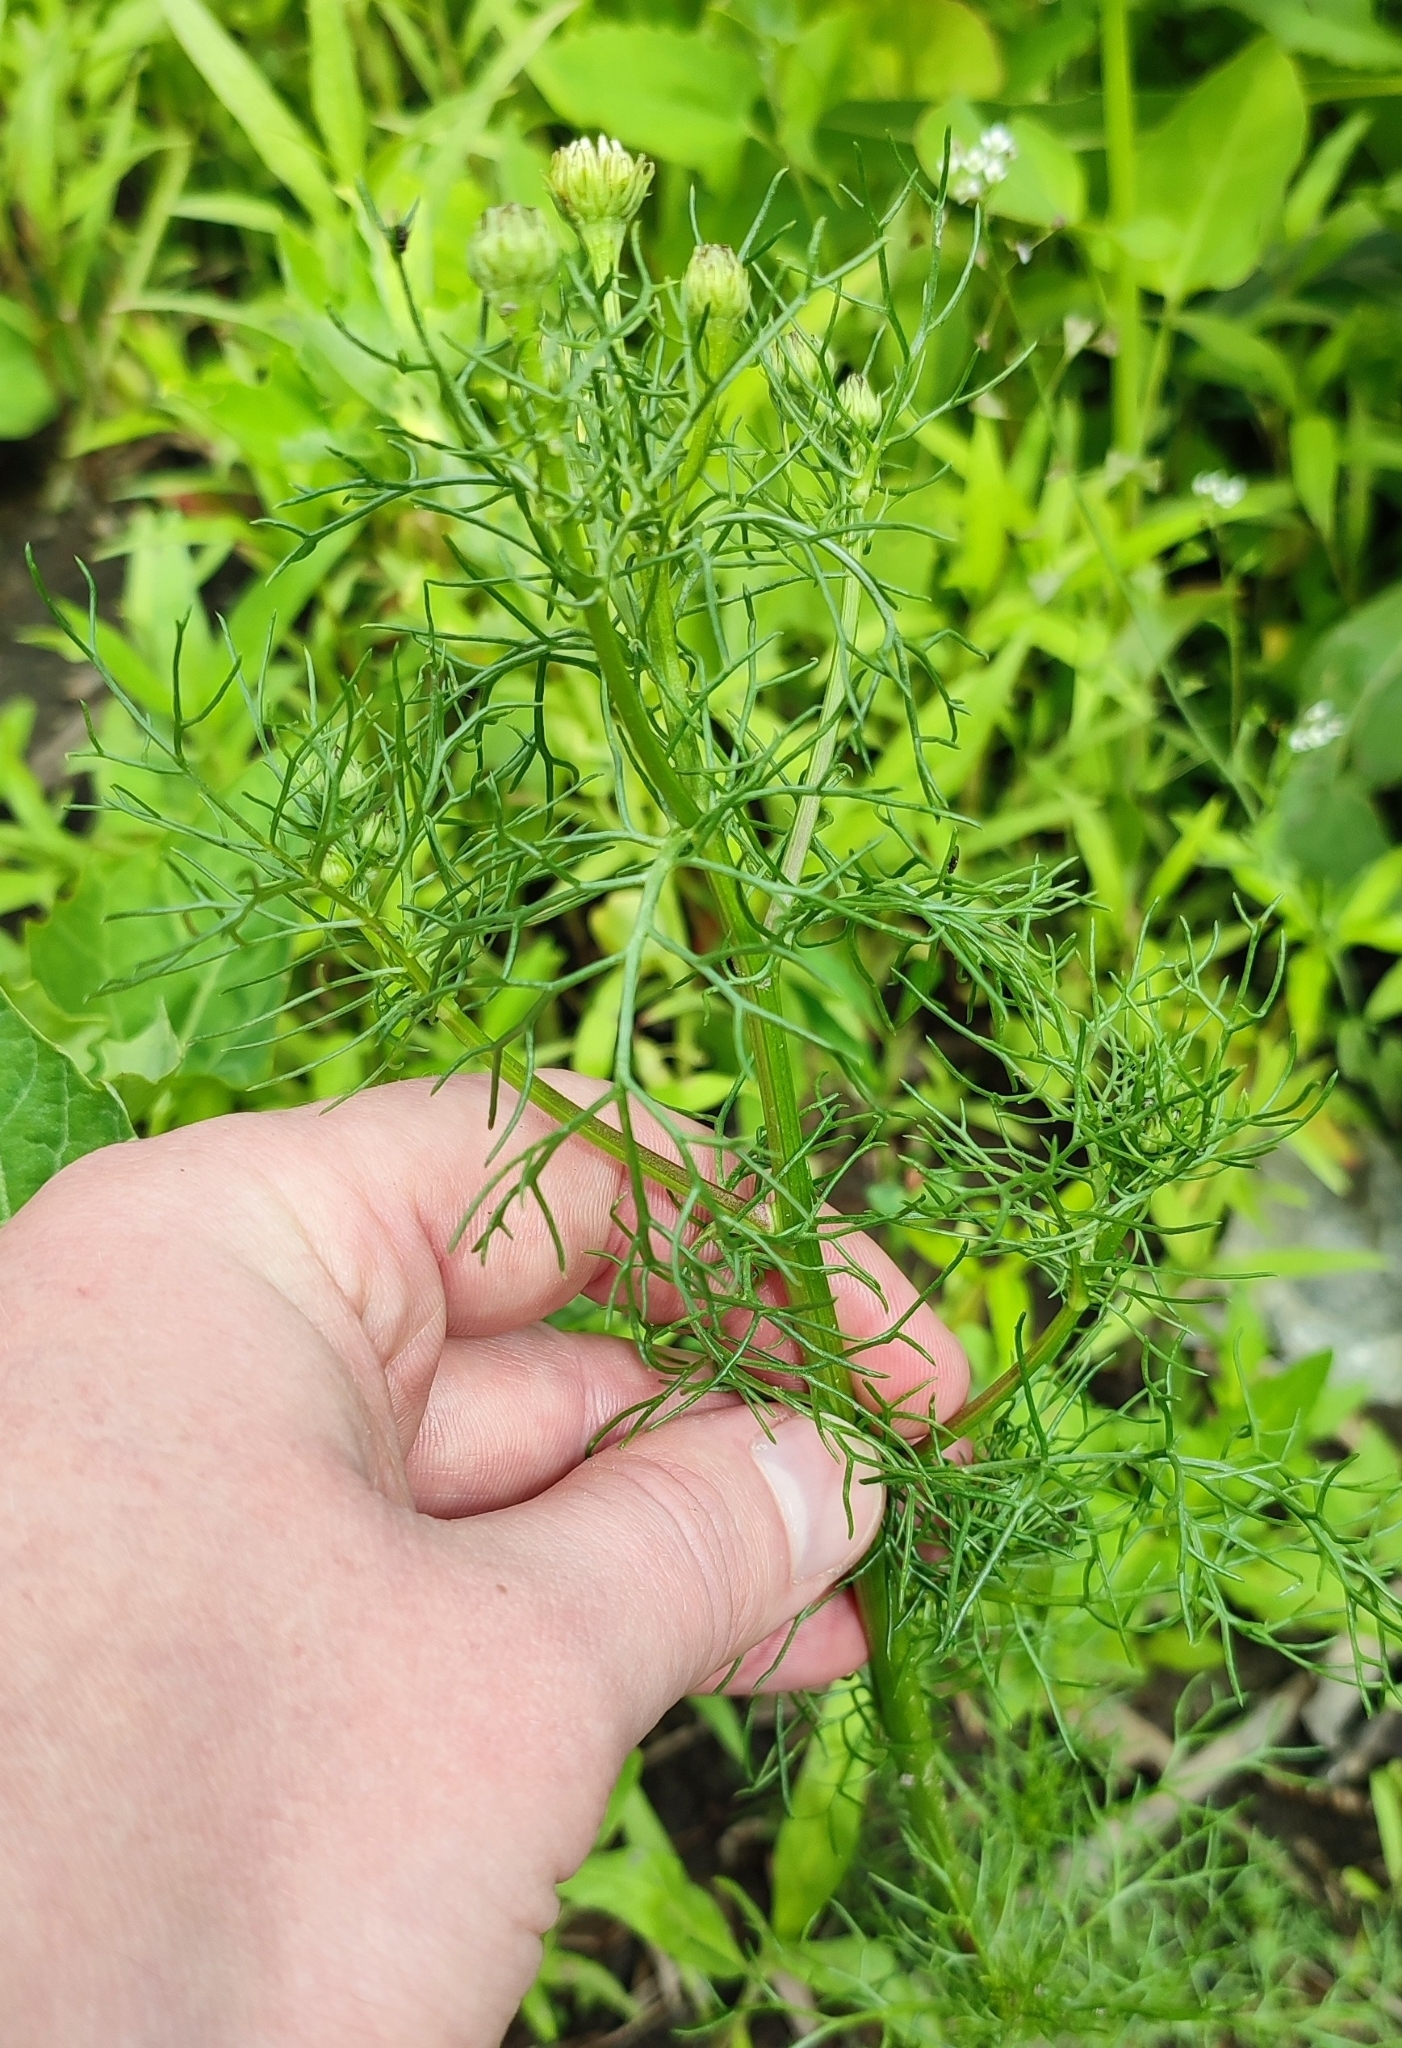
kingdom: Plantae
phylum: Tracheophyta
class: Magnoliopsida
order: Asterales
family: Asteraceae
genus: Tripleurospermum
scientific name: Tripleurospermum inodorum
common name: Scentless mayweed
